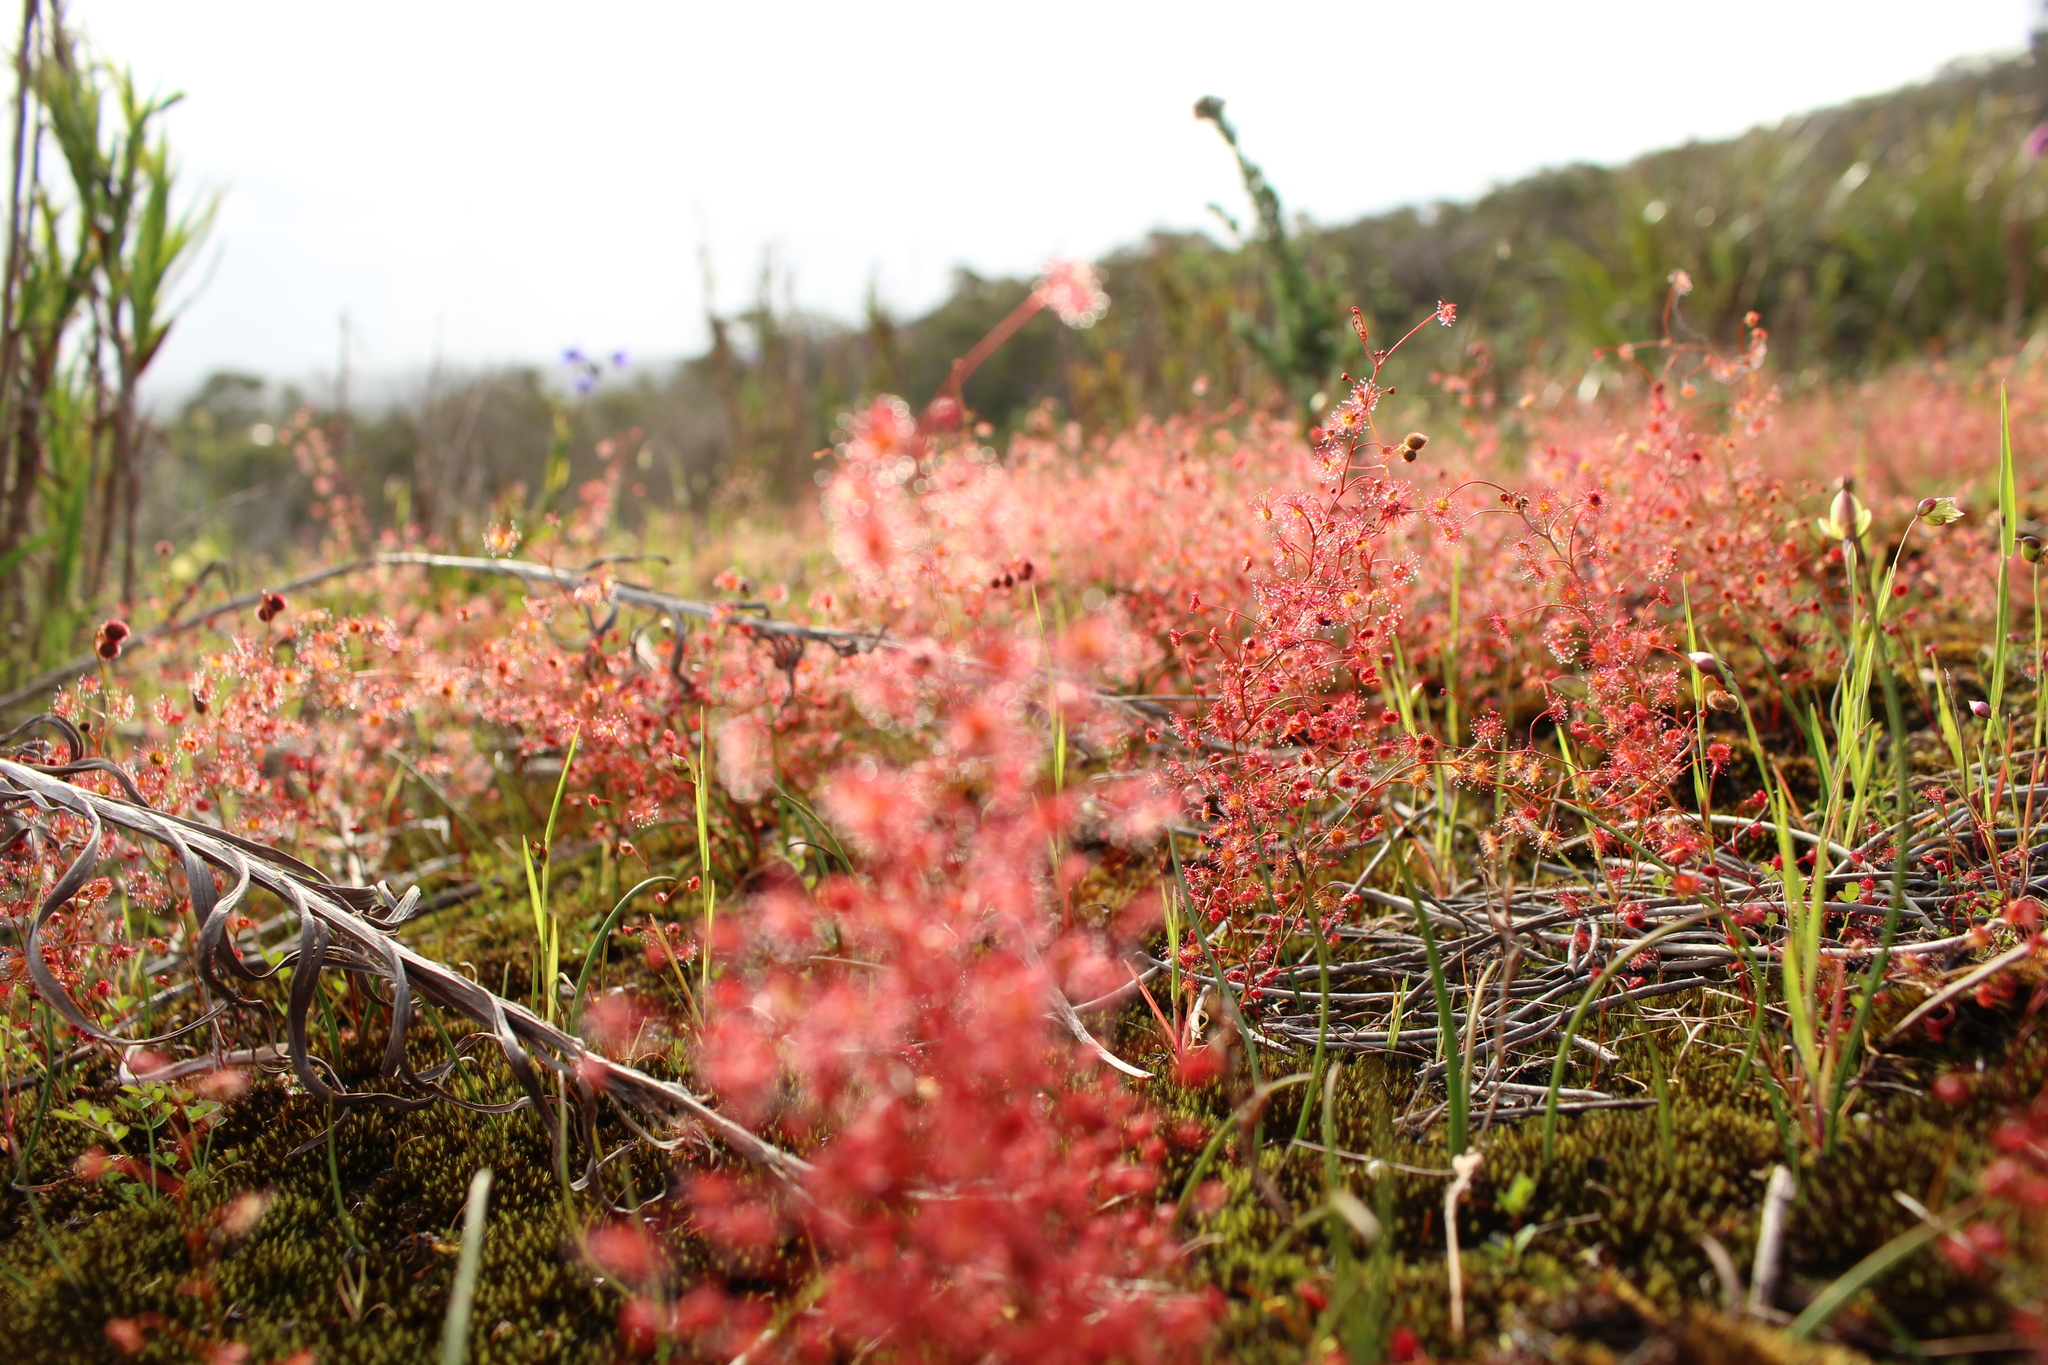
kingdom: Plantae
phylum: Tracheophyta
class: Magnoliopsida
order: Caryophyllales
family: Droseraceae
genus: Drosera
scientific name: Drosera
